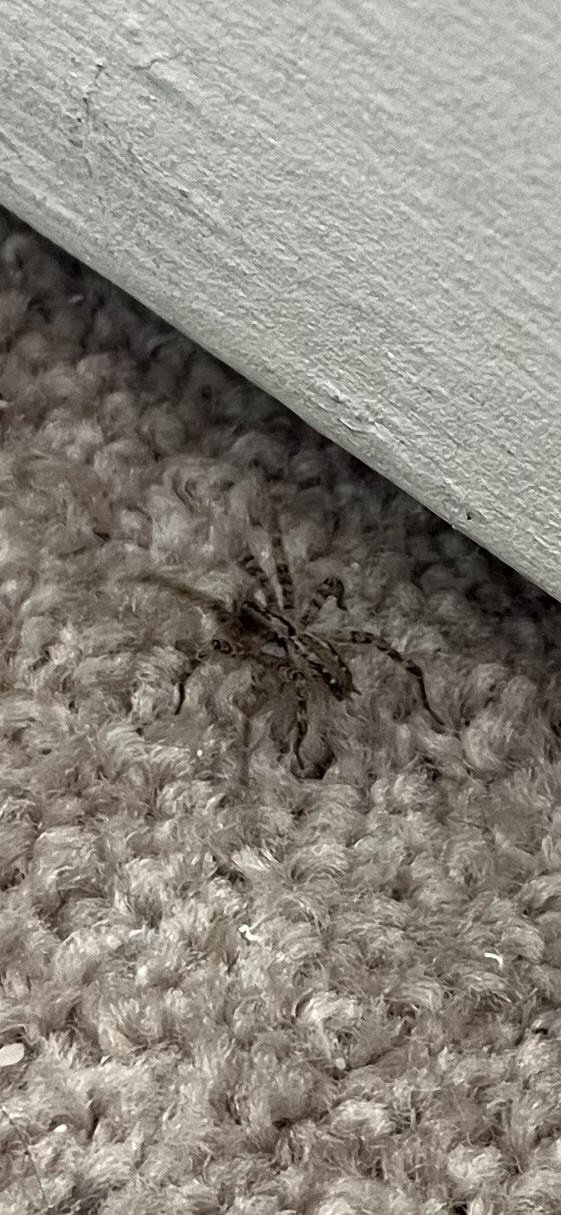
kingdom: Animalia
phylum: Arthropoda
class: Arachnida
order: Araneae
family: Agelenidae
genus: Barronopsis
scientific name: Barronopsis jeffersi
